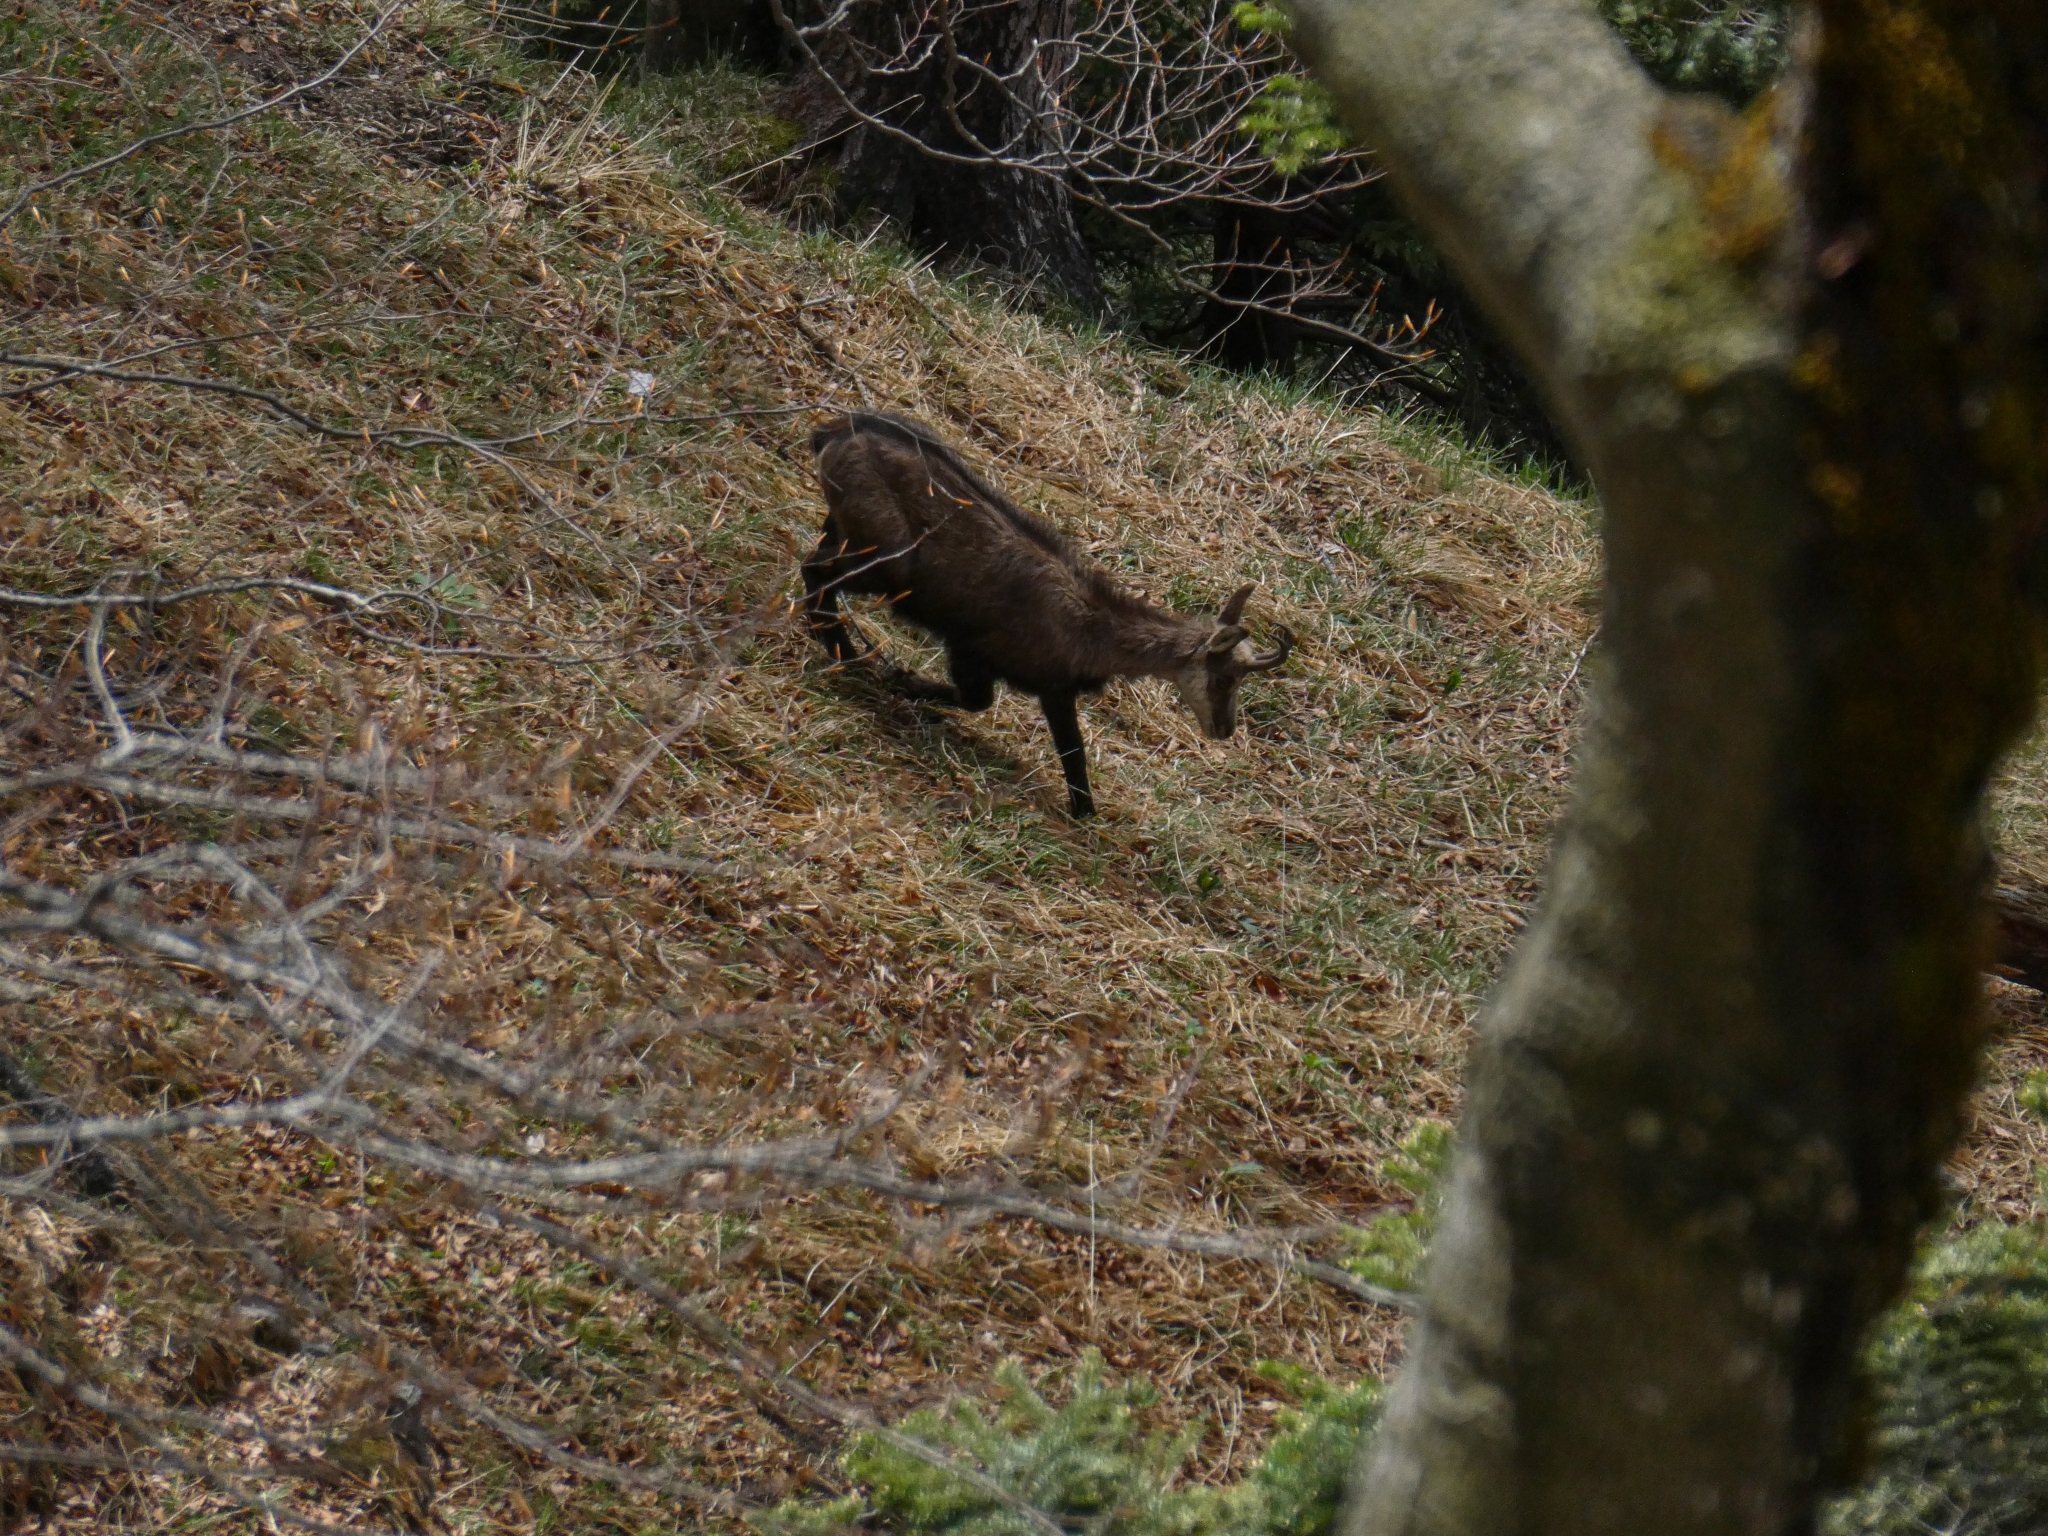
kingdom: Animalia
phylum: Chordata
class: Mammalia
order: Artiodactyla
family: Bovidae
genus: Rupicapra
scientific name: Rupicapra rupicapra
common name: Chamois
